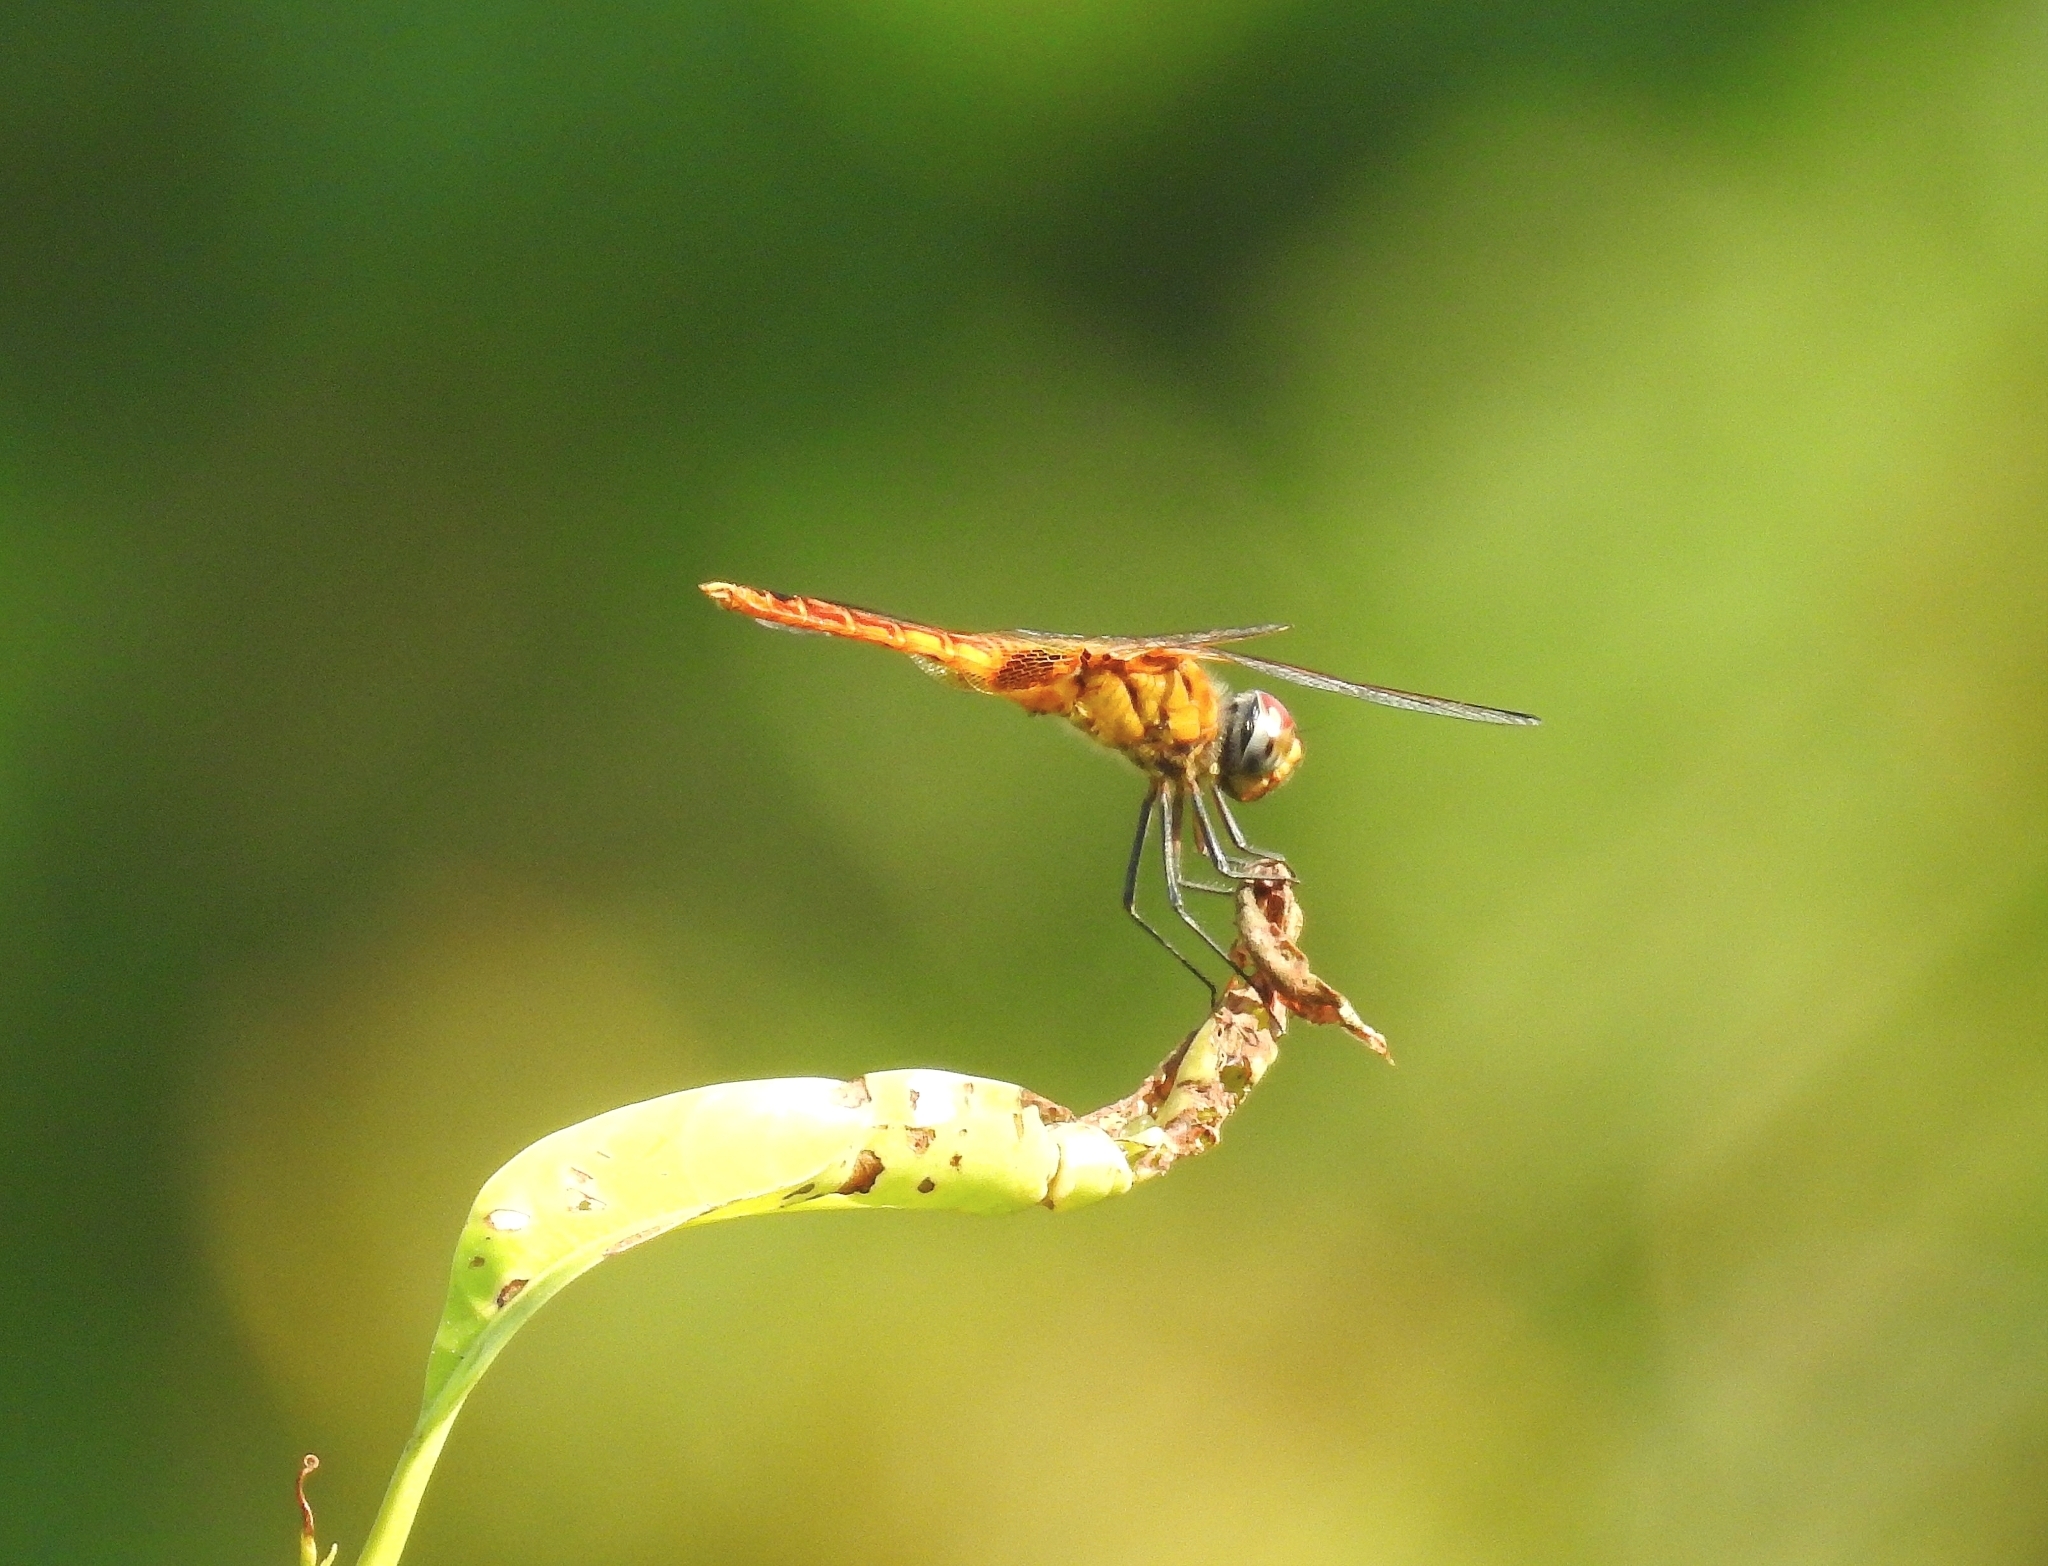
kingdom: Animalia
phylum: Arthropoda
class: Insecta
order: Odonata
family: Libellulidae
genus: Urothemis
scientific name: Urothemis signata
